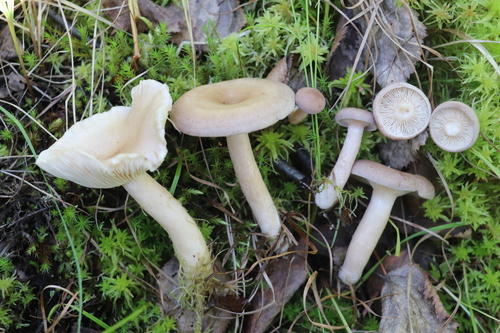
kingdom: Fungi
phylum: Basidiomycota
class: Agaricomycetes
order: Russulales
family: Russulaceae
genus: Lactarius
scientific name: Lactarius vietus
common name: Grey milk-cap
